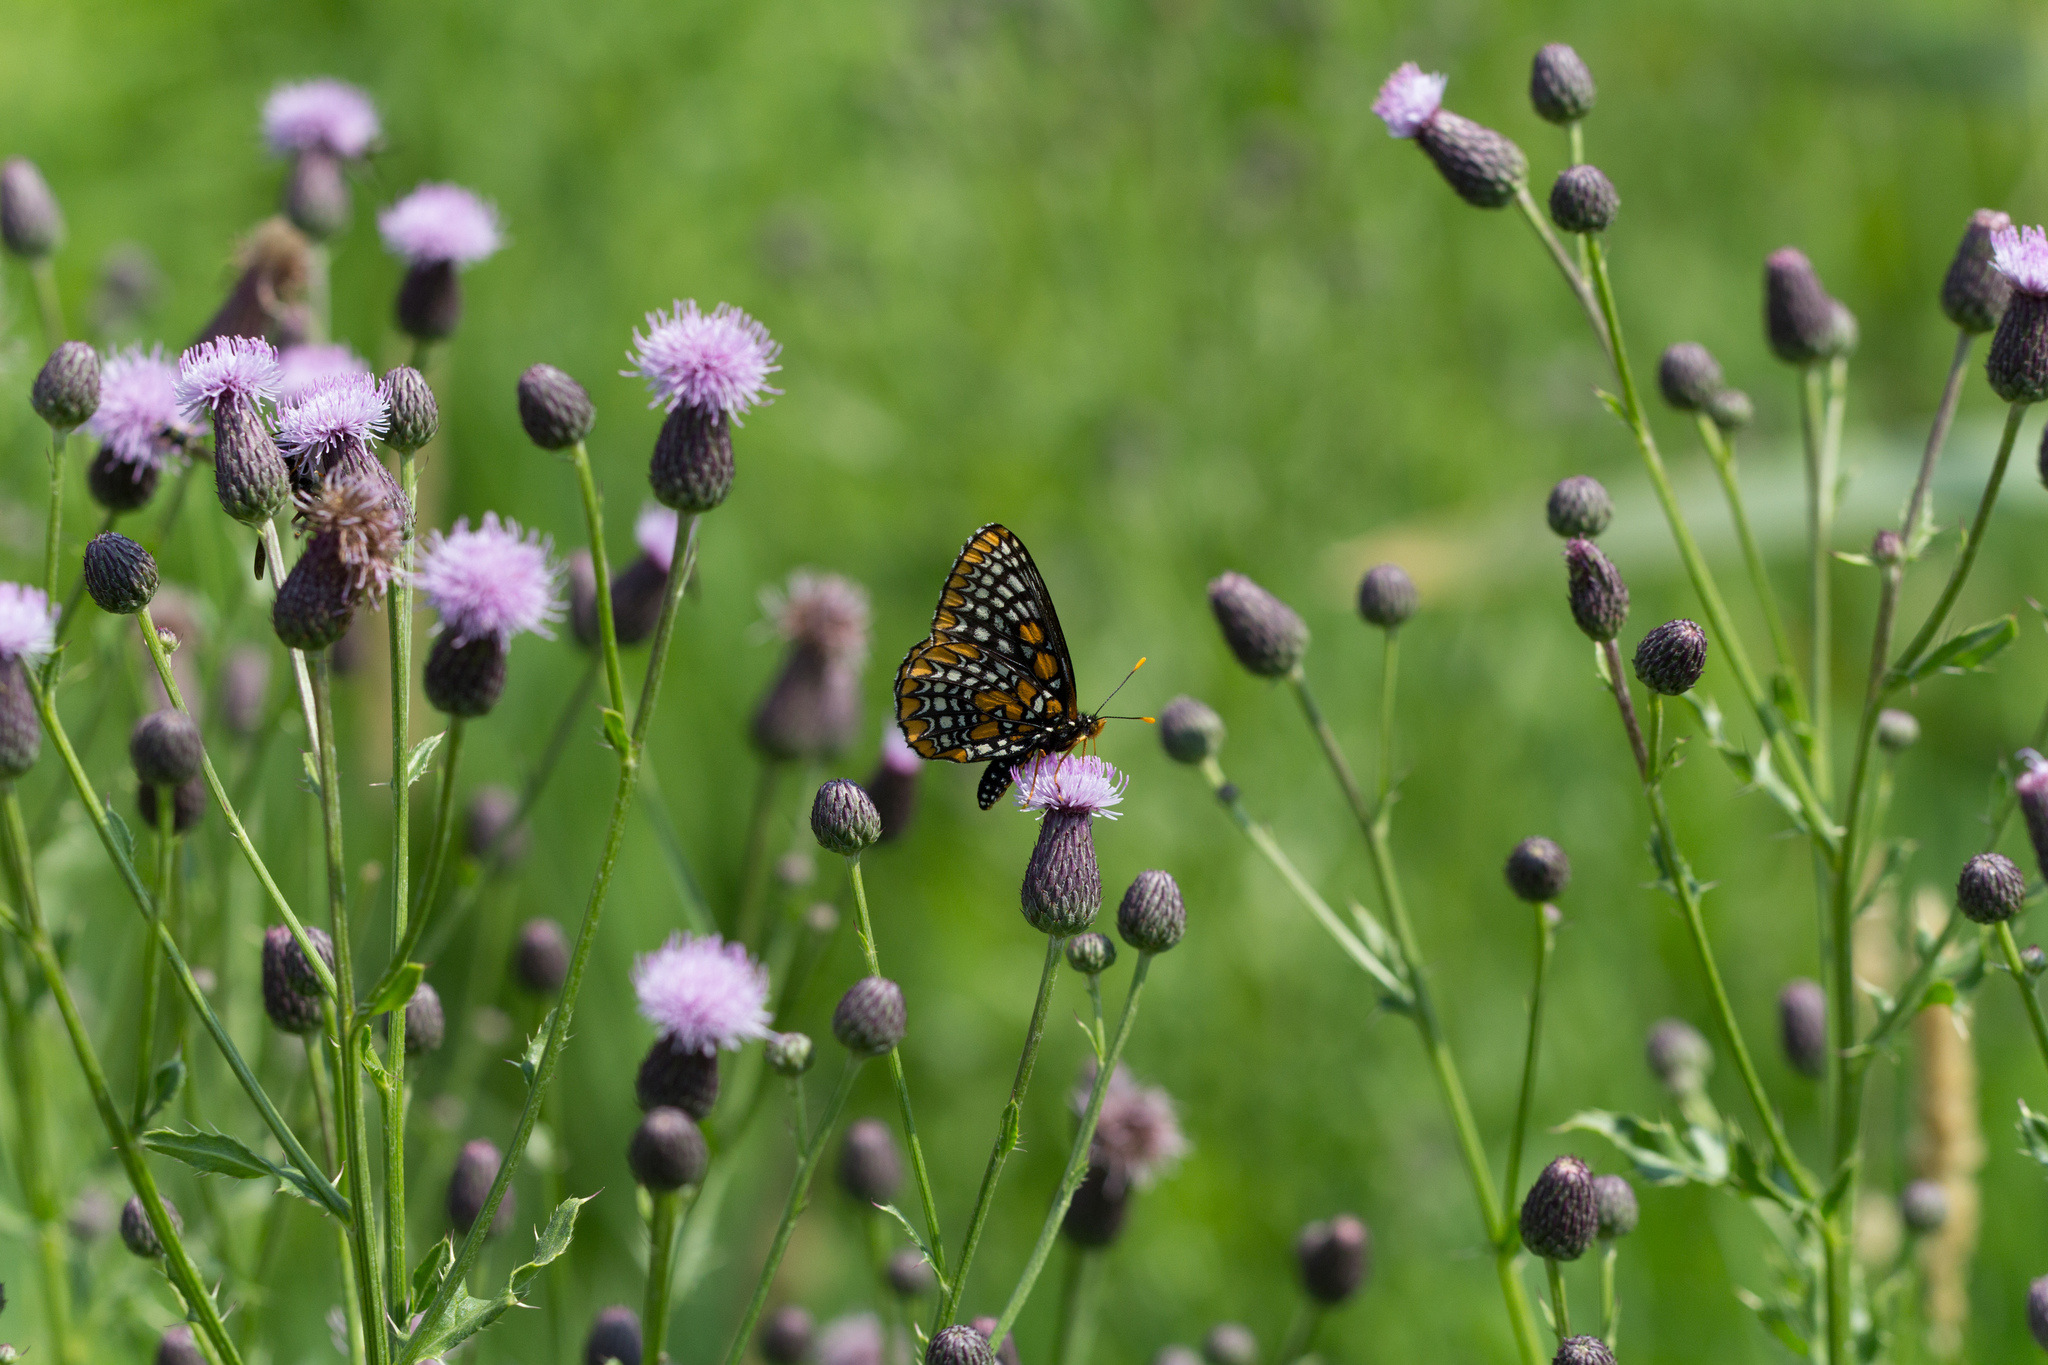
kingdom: Animalia
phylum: Arthropoda
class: Insecta
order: Lepidoptera
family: Nymphalidae
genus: Euphydryas
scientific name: Euphydryas phaeton
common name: Baltimore checkerspot
